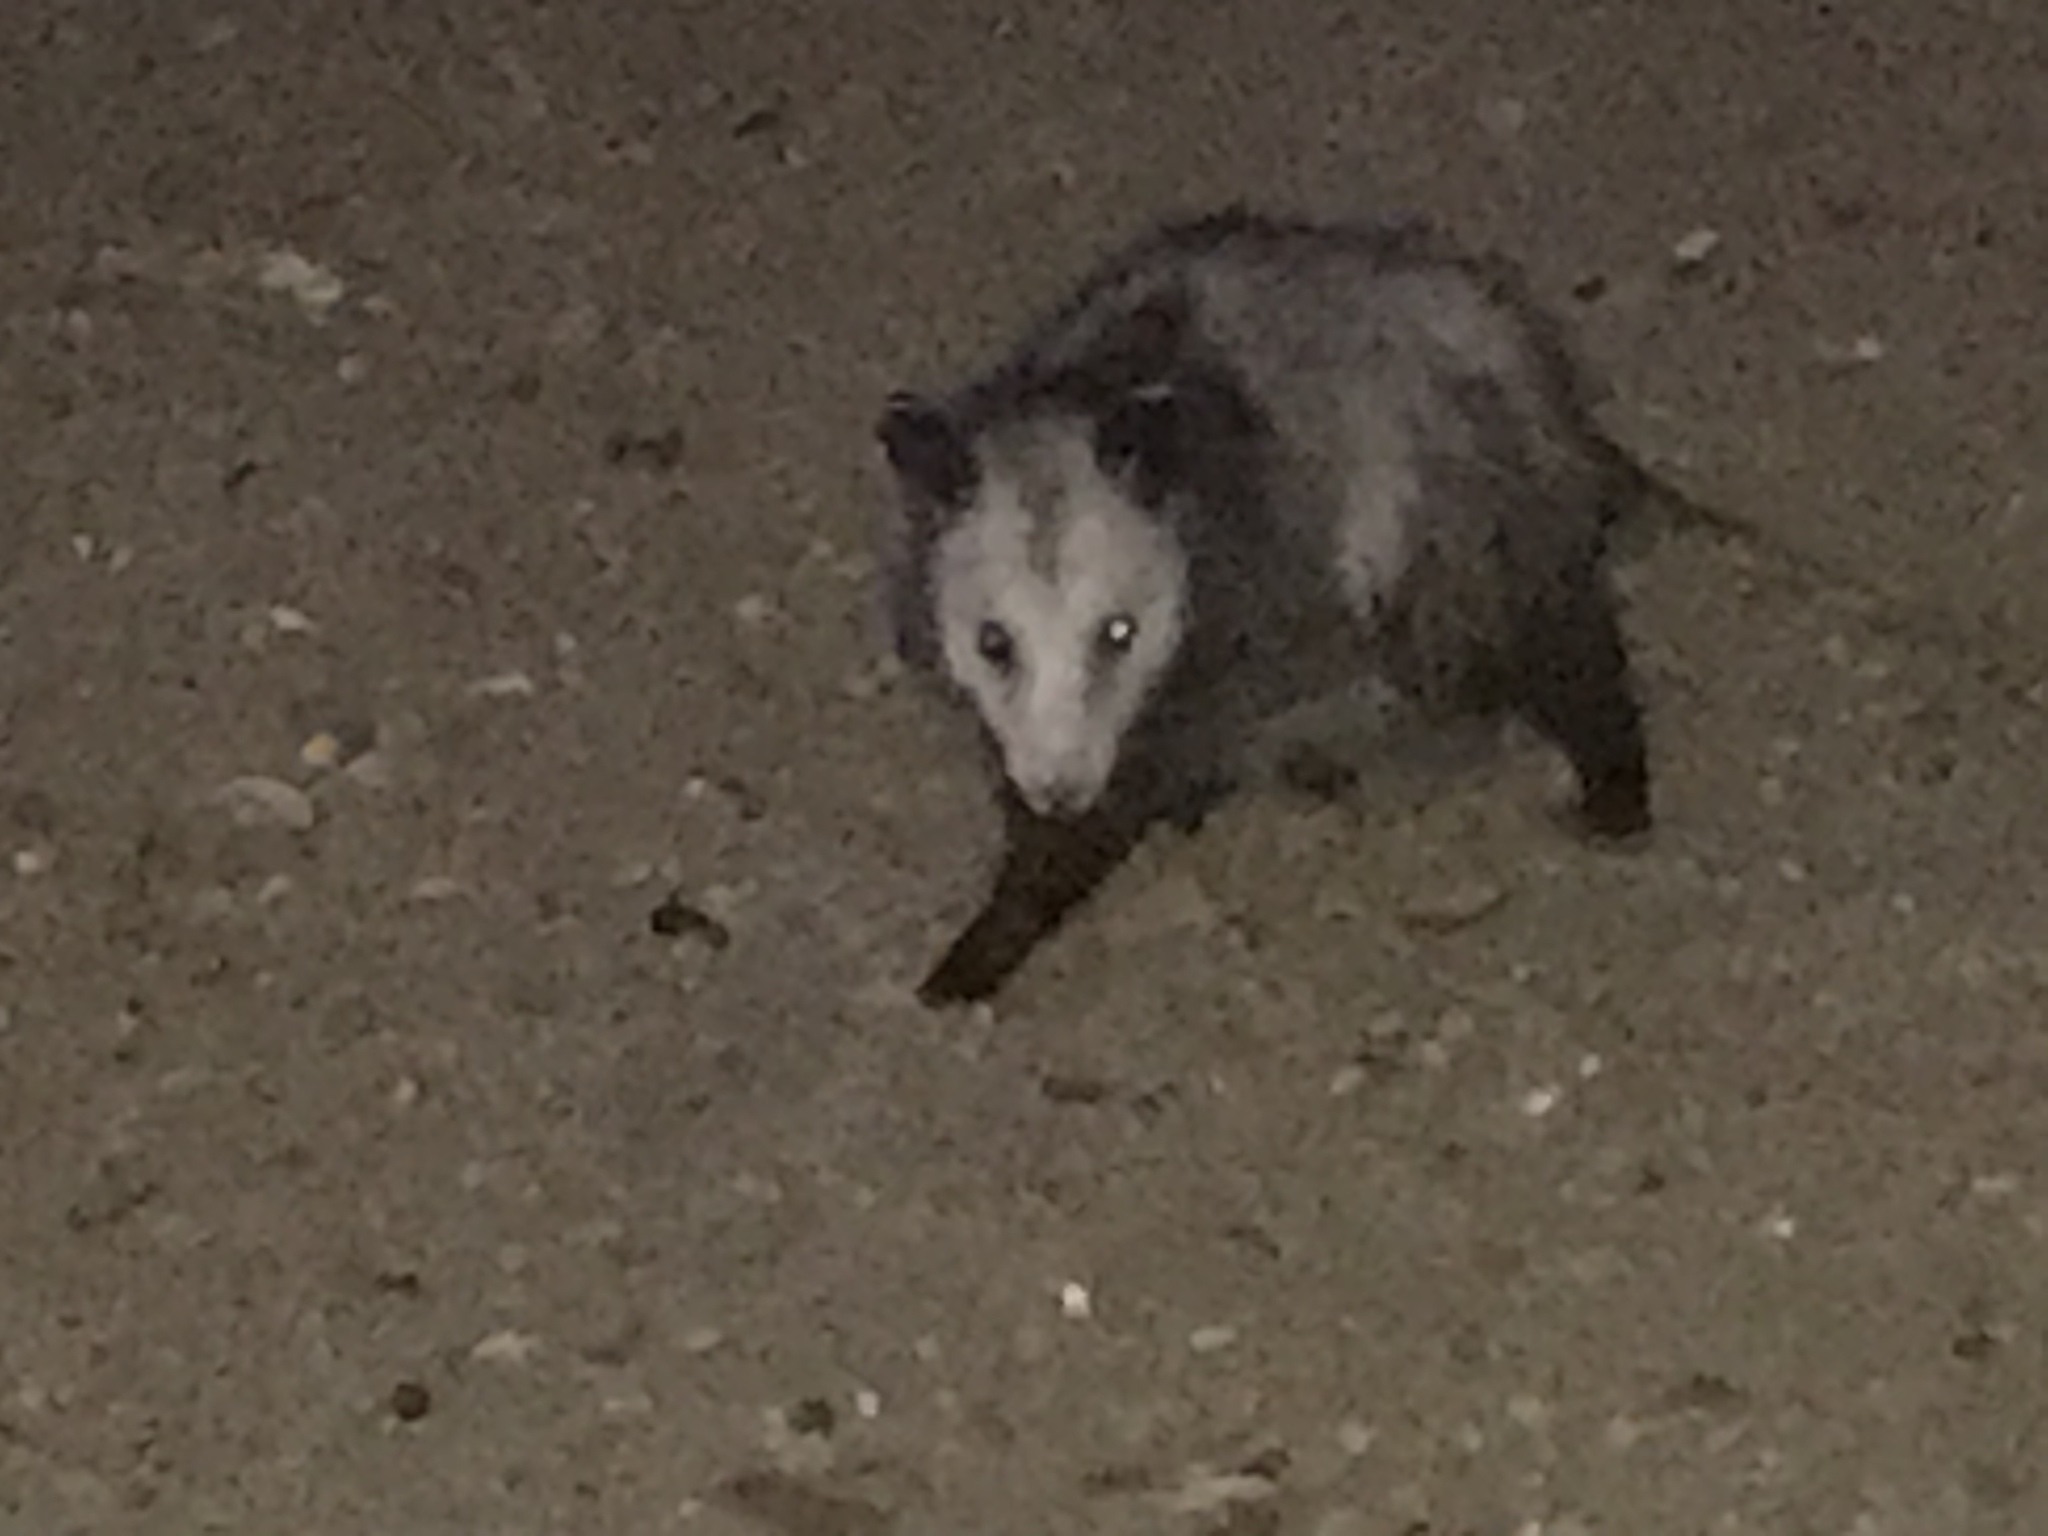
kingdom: Animalia
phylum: Chordata
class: Mammalia
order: Didelphimorphia
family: Didelphidae
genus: Didelphis
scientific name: Didelphis virginiana
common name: Virginia opossum
